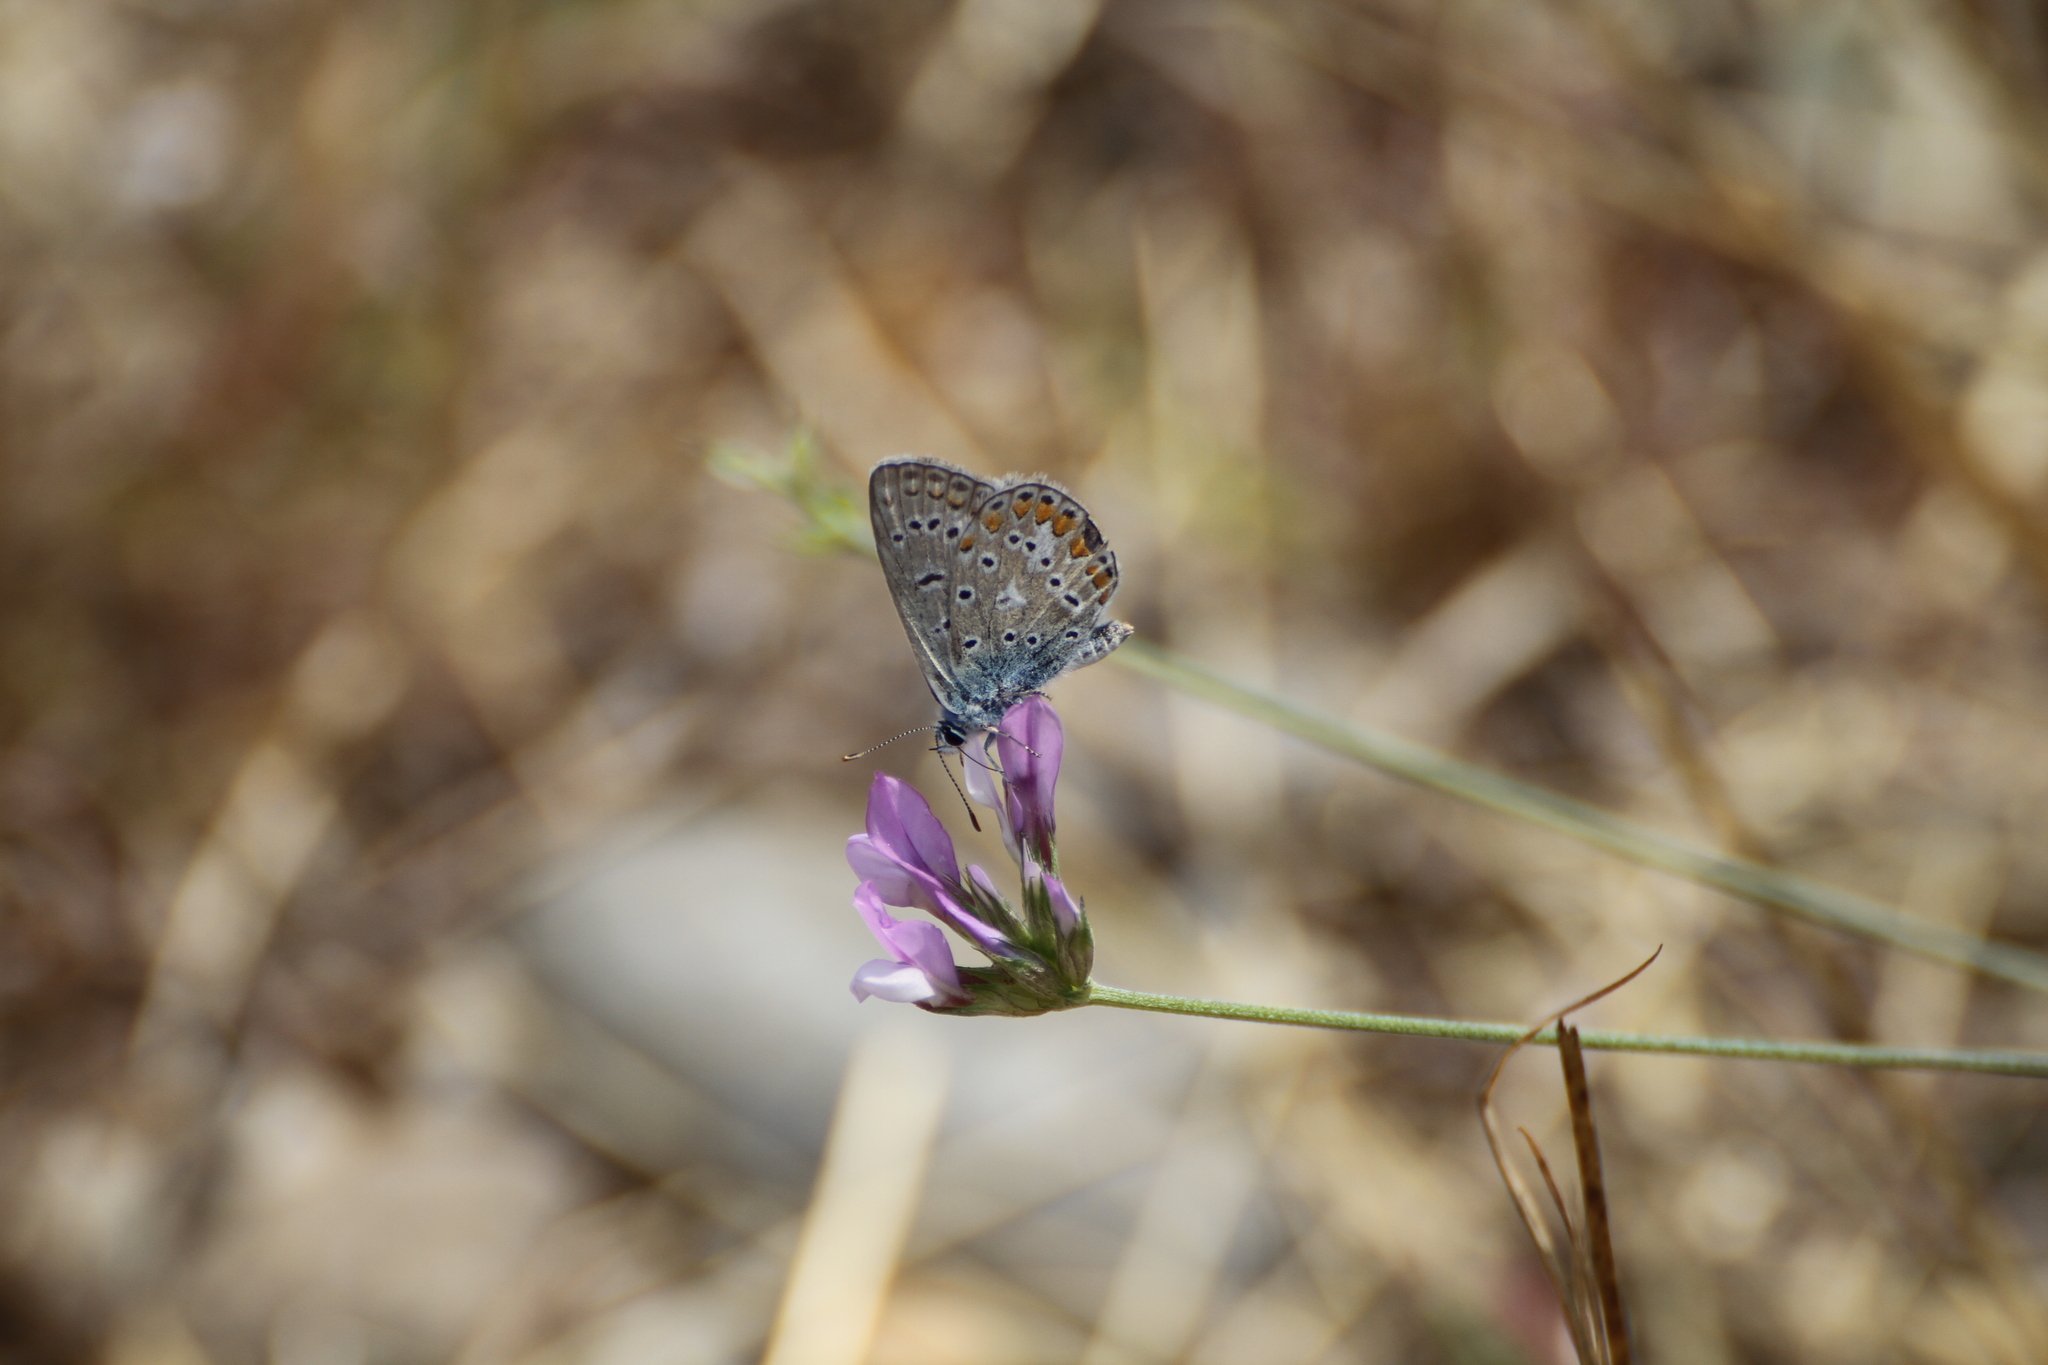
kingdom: Animalia
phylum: Arthropoda
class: Insecta
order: Lepidoptera
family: Lycaenidae
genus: Polyommatus
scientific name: Polyommatus icarus
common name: Common blue
